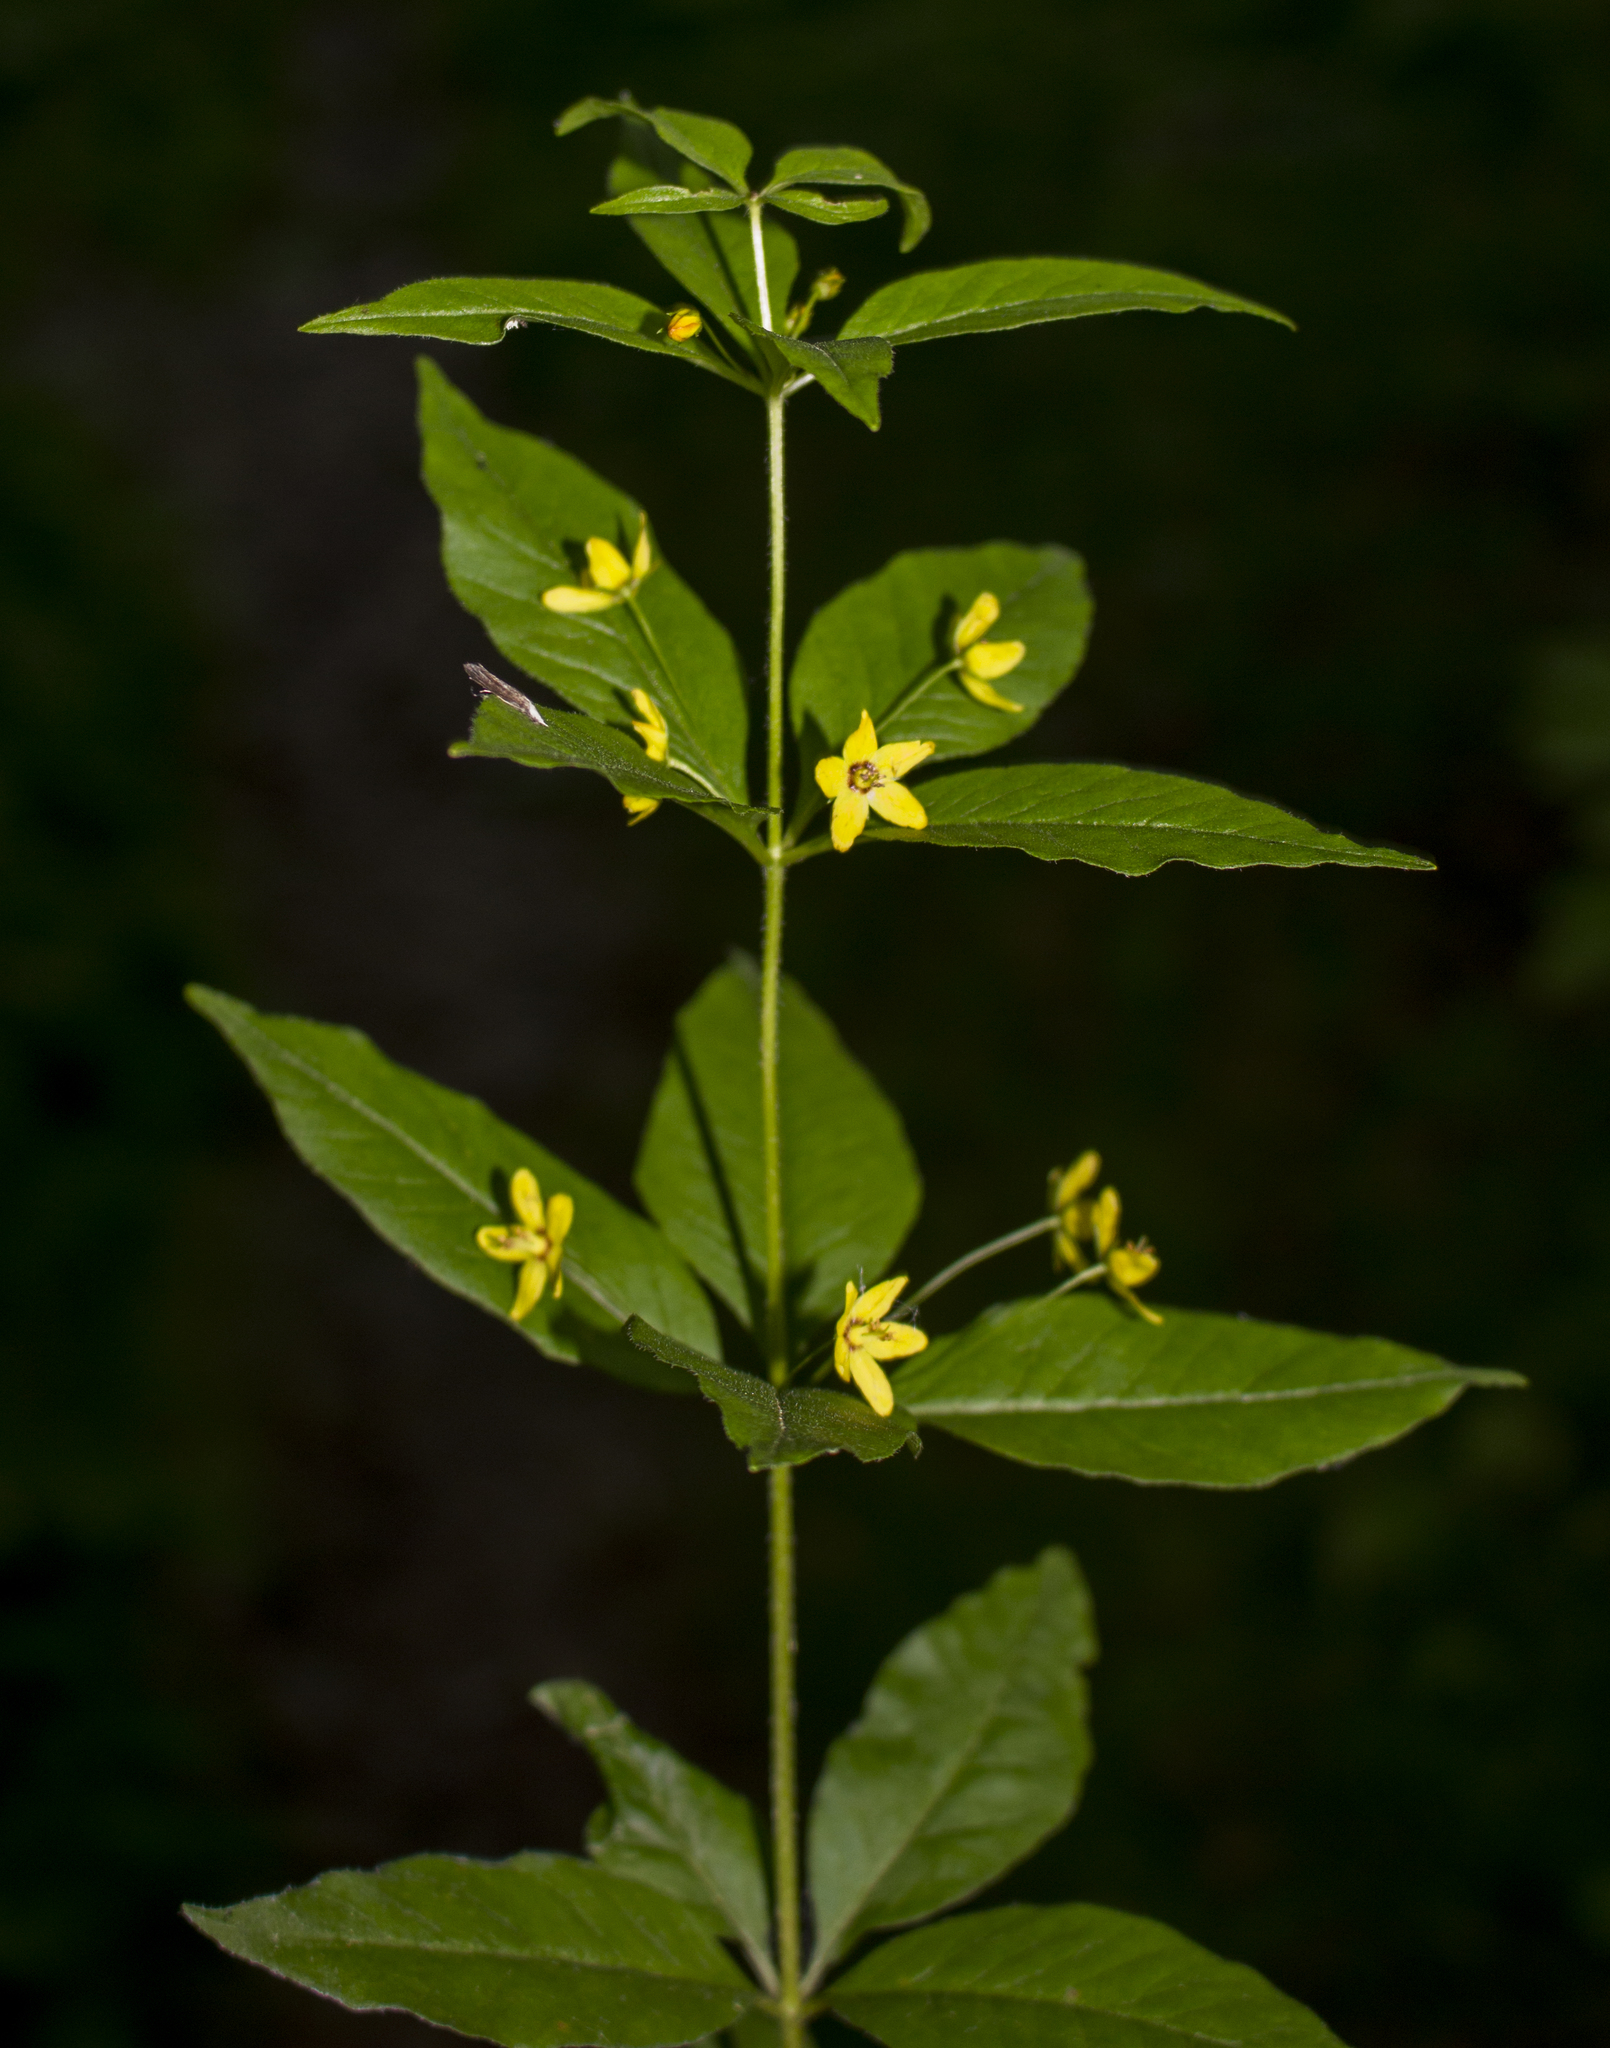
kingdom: Plantae
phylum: Tracheophyta
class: Magnoliopsida
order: Ericales
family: Primulaceae
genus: Lysimachia
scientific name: Lysimachia quadrifolia
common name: Whorled loosestrife
